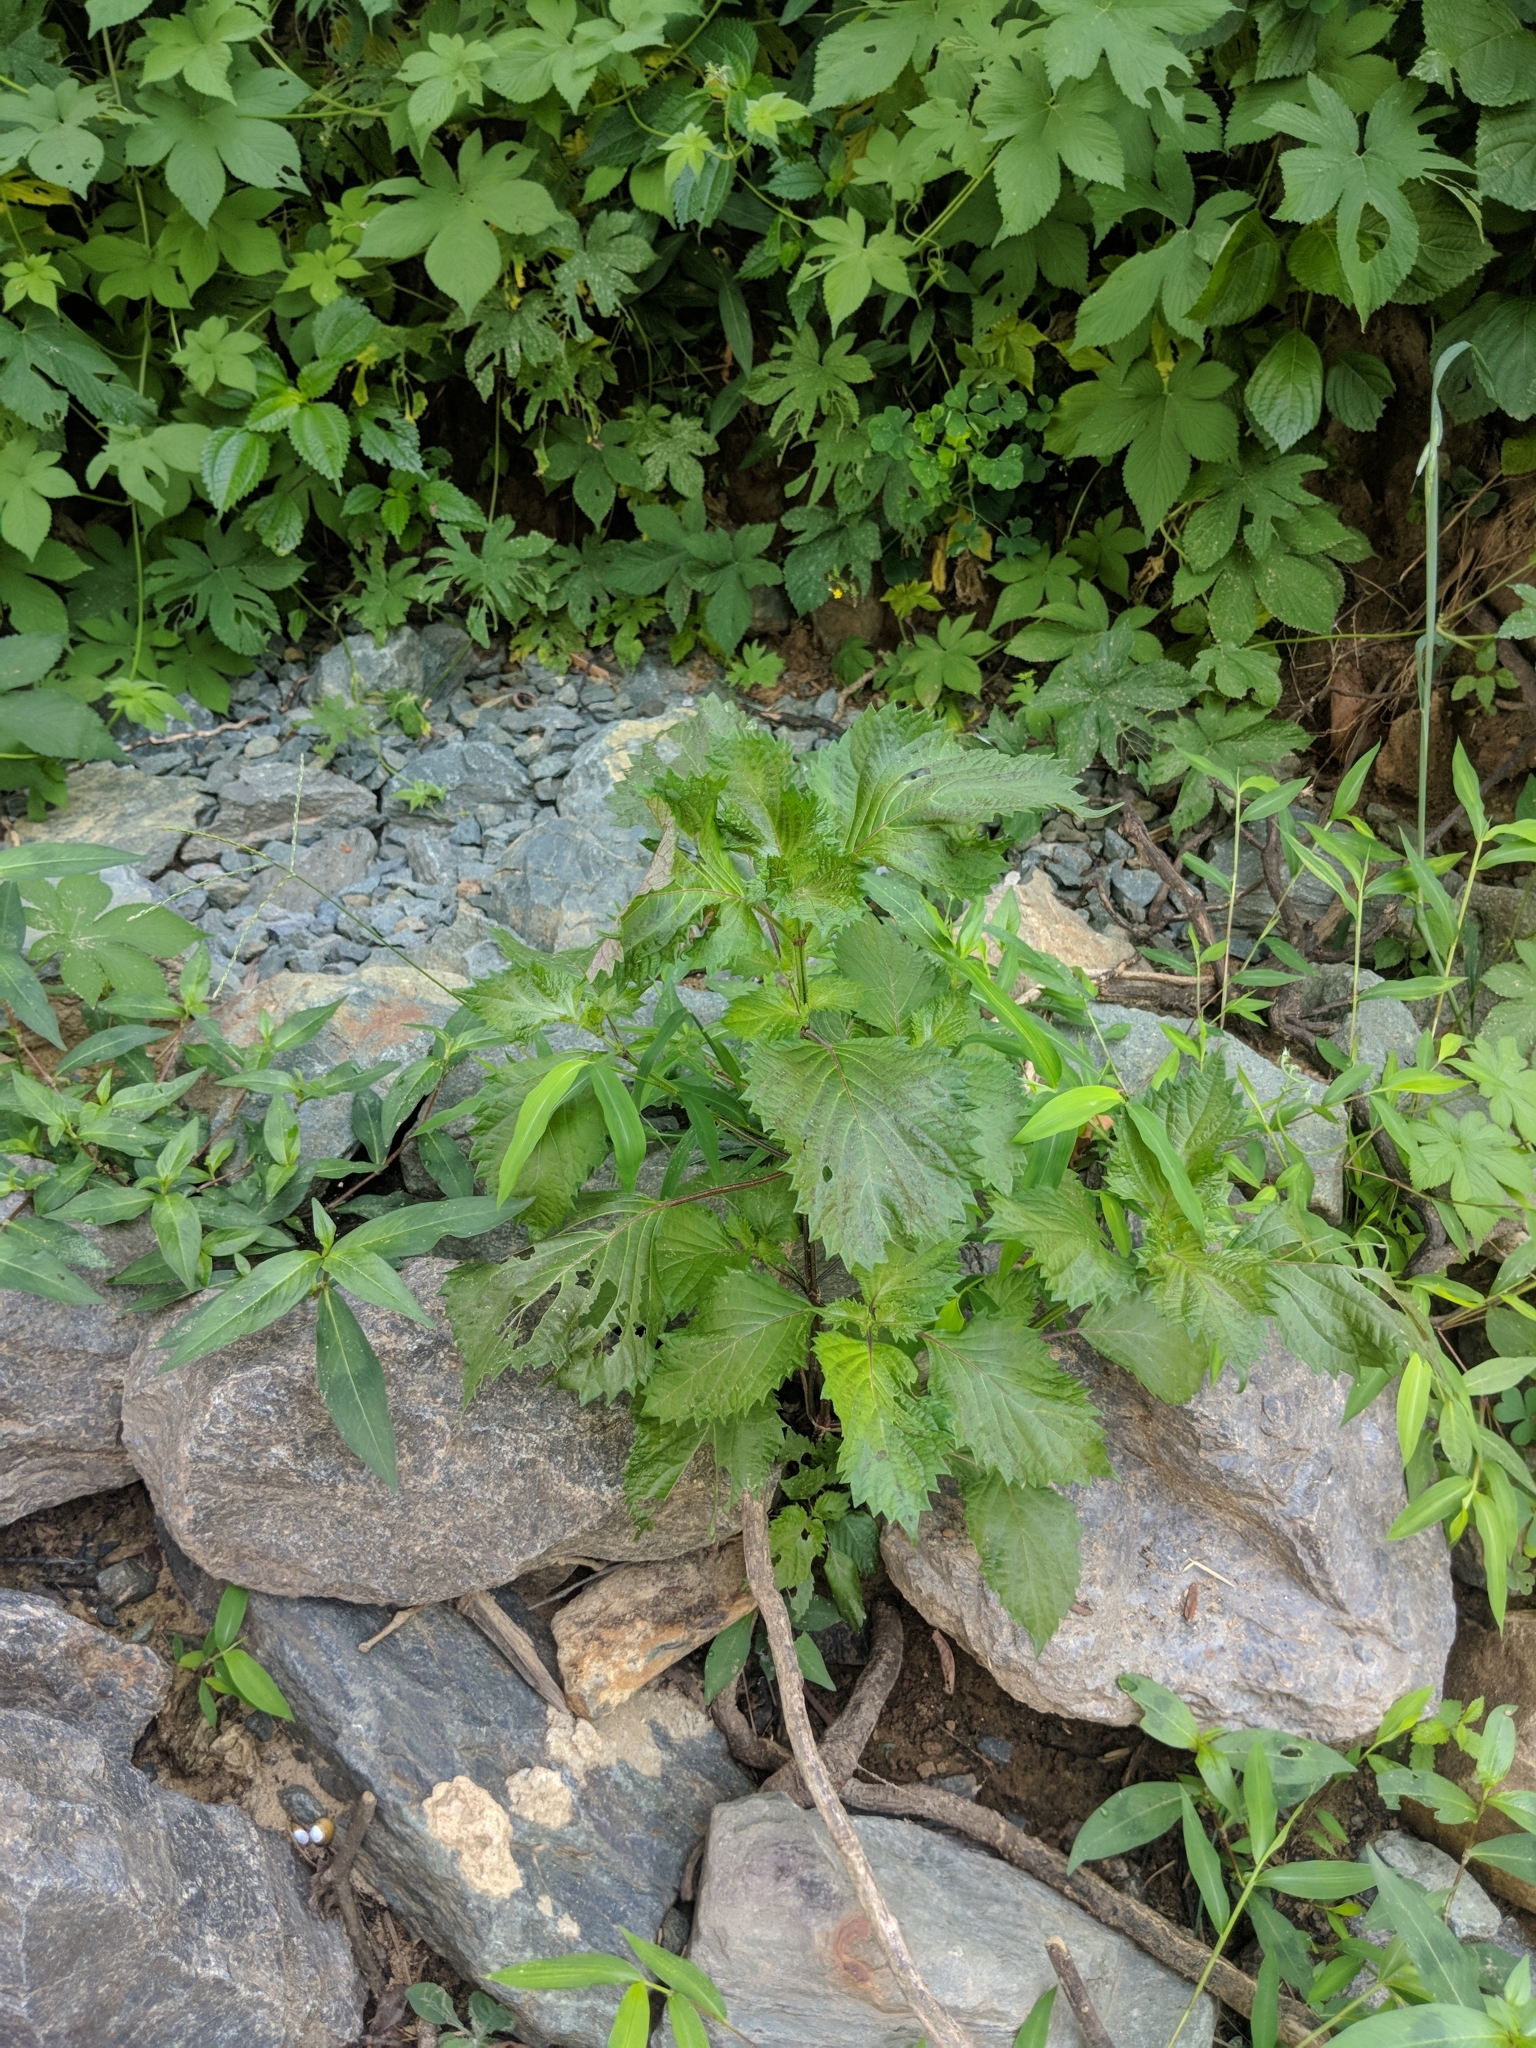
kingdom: Plantae
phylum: Tracheophyta
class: Magnoliopsida
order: Lamiales
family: Lamiaceae
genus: Perilla
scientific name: Perilla frutescens
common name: Perilla
